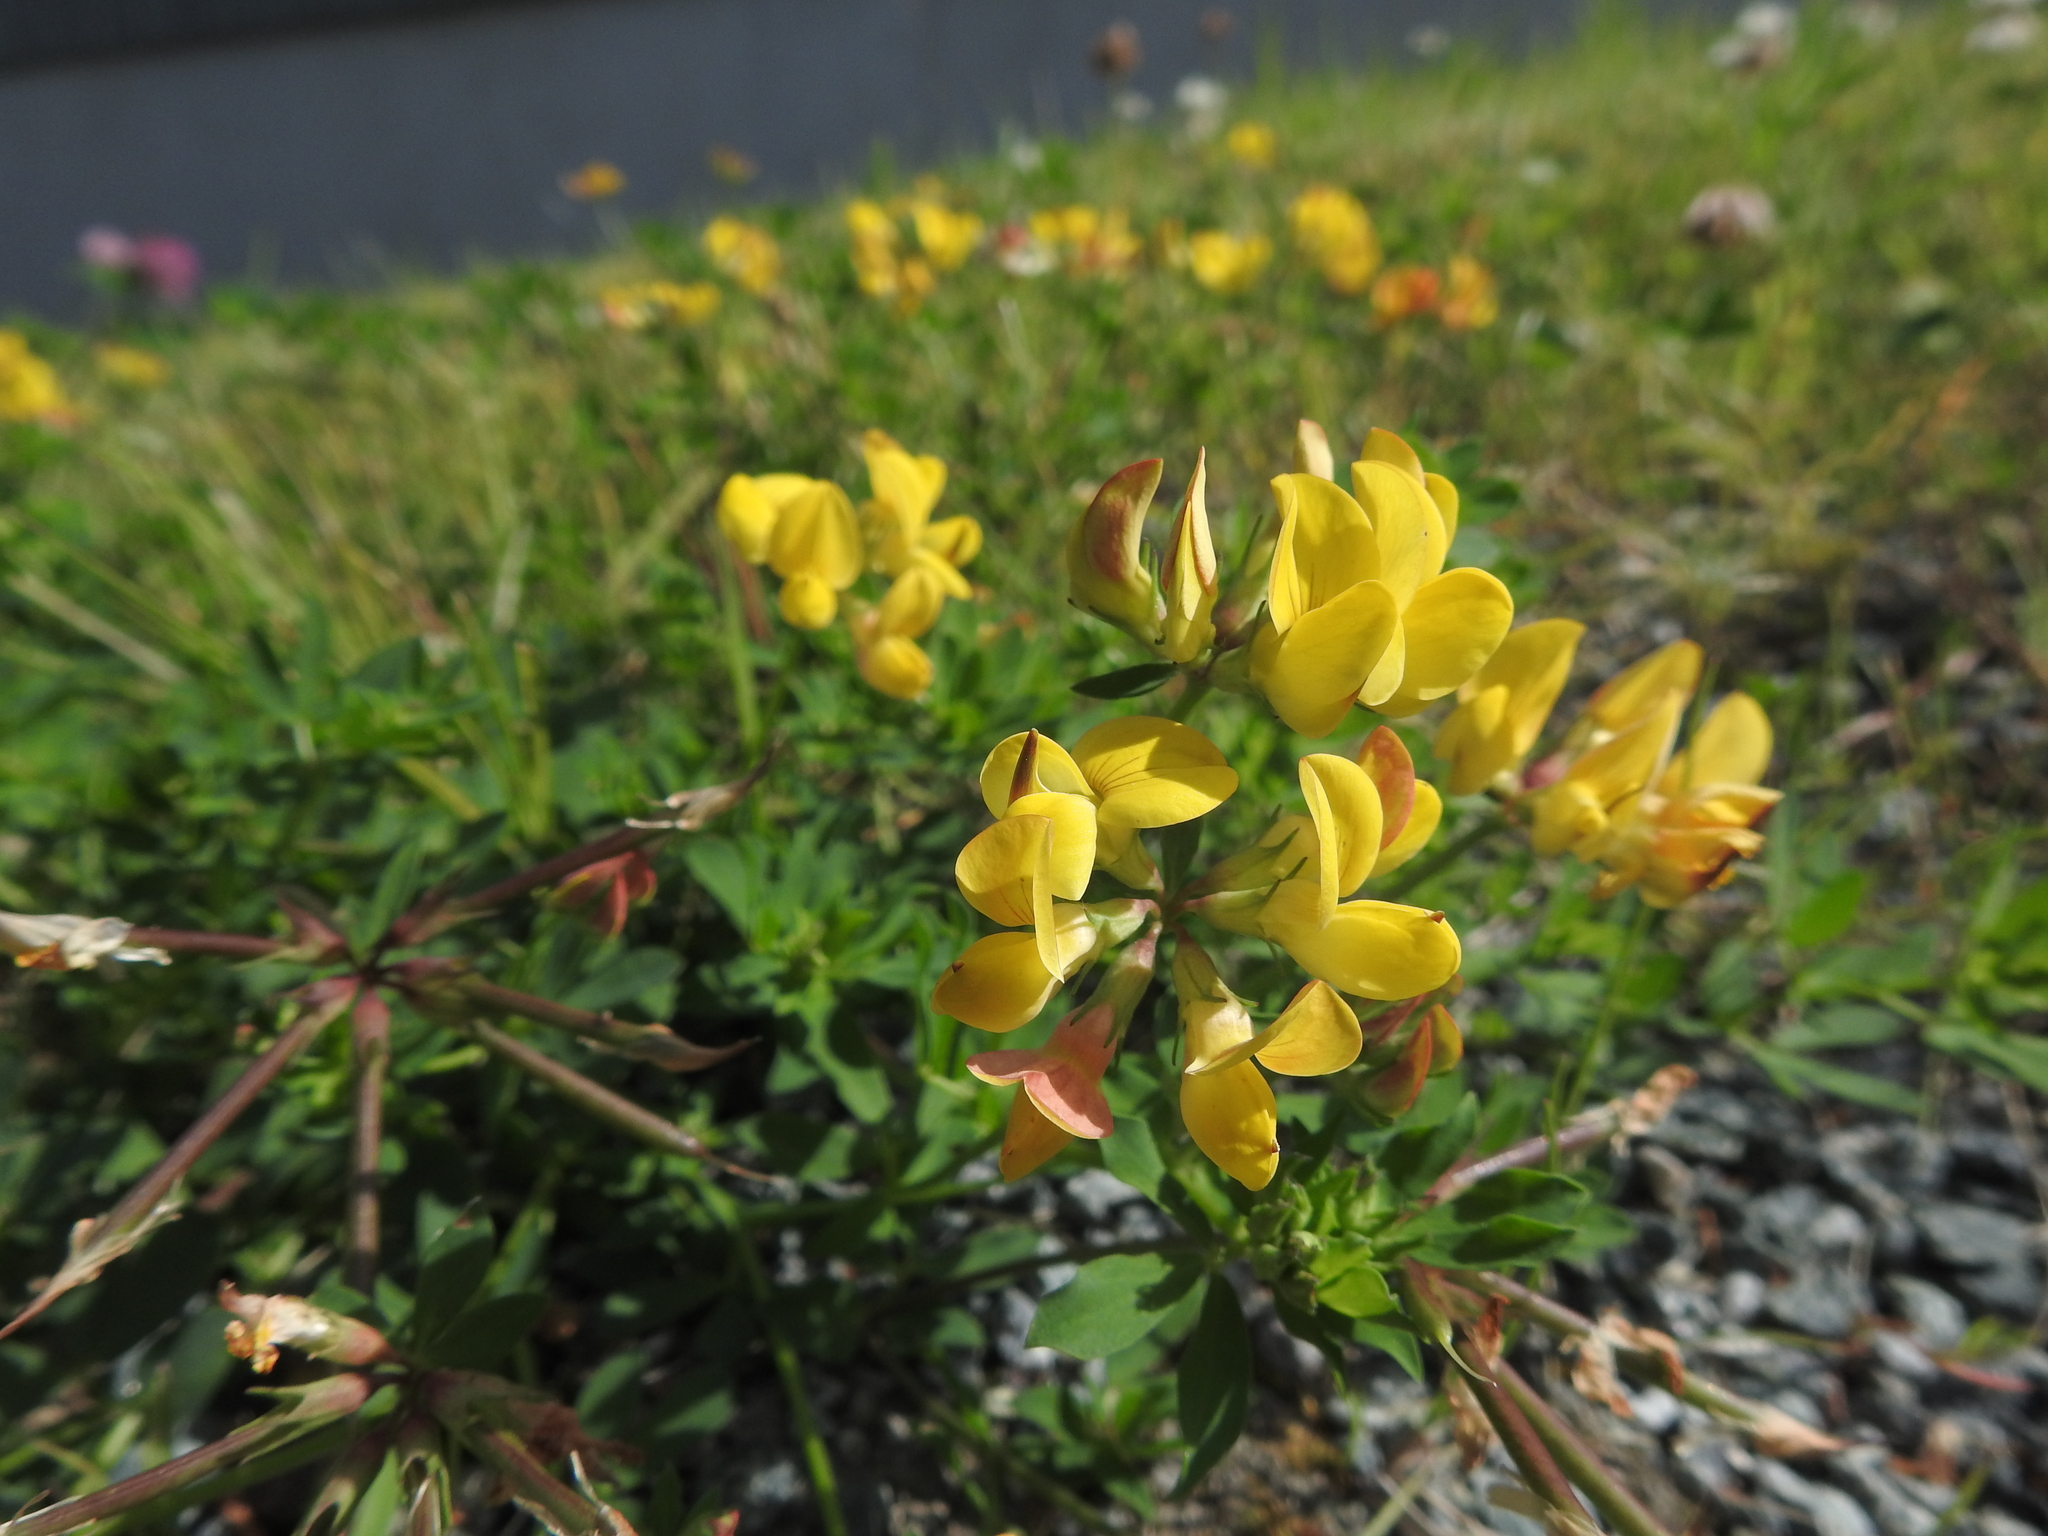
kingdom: Plantae
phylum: Tracheophyta
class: Magnoliopsida
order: Fabales
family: Fabaceae
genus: Lotus
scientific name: Lotus corniculatus
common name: Common bird's-foot-trefoil
